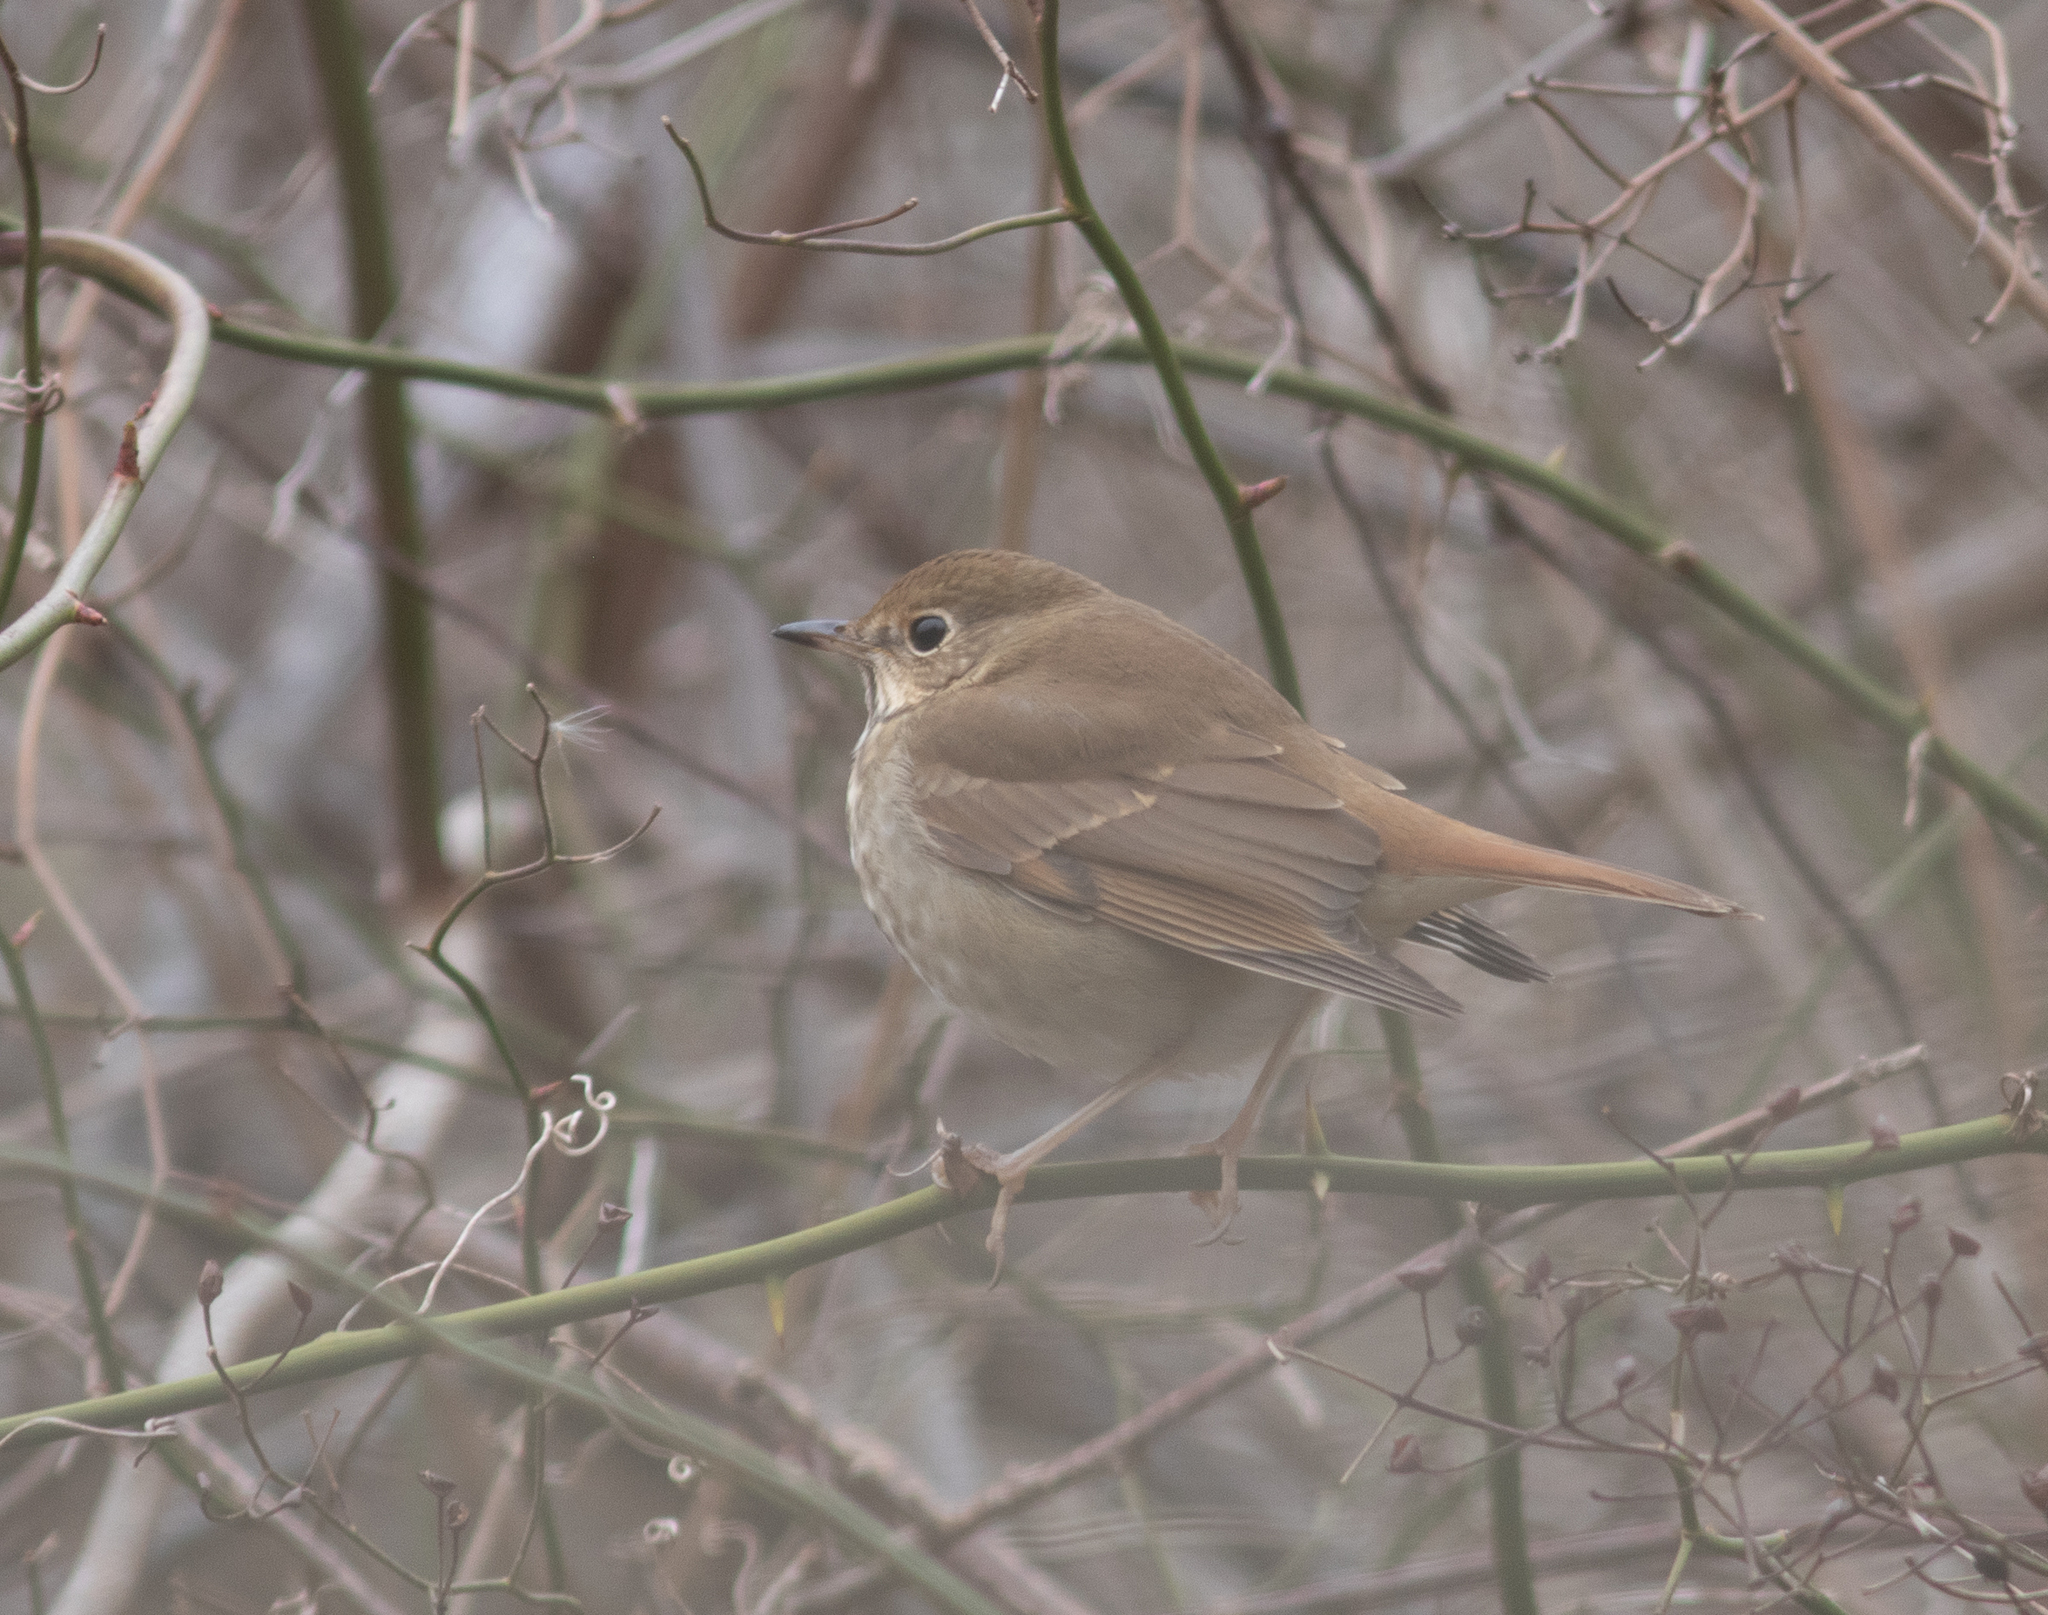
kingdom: Animalia
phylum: Chordata
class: Aves
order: Passeriformes
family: Turdidae
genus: Catharus
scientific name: Catharus guttatus
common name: Hermit thrush
